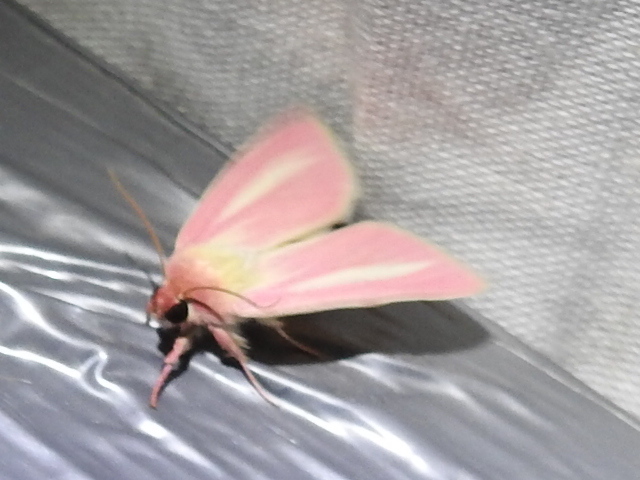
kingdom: Animalia
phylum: Arthropoda
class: Insecta
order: Lepidoptera
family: Noctuidae
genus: Heliocheilus
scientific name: Heliocheilus julia
